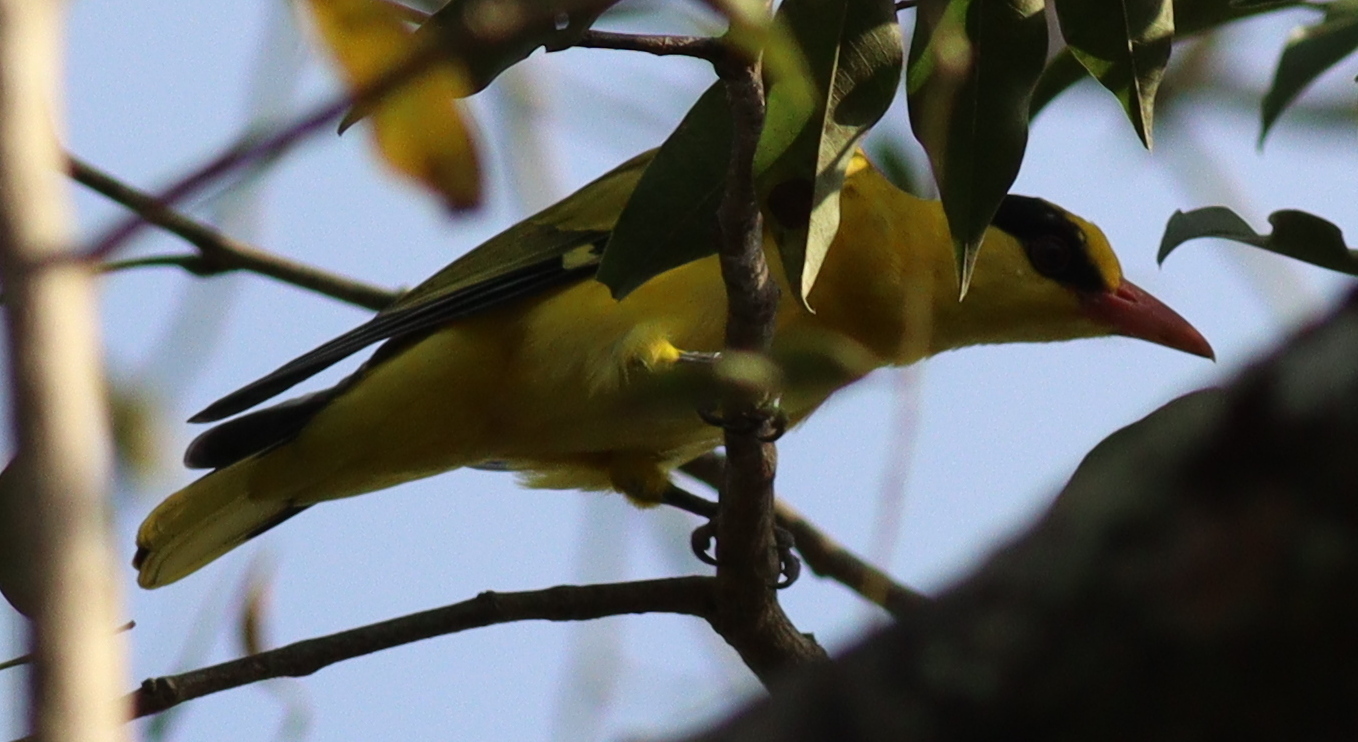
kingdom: Animalia
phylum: Chordata
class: Aves
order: Passeriformes
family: Oriolidae
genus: Oriolus
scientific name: Oriolus chinensis
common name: Black-naped oriole
